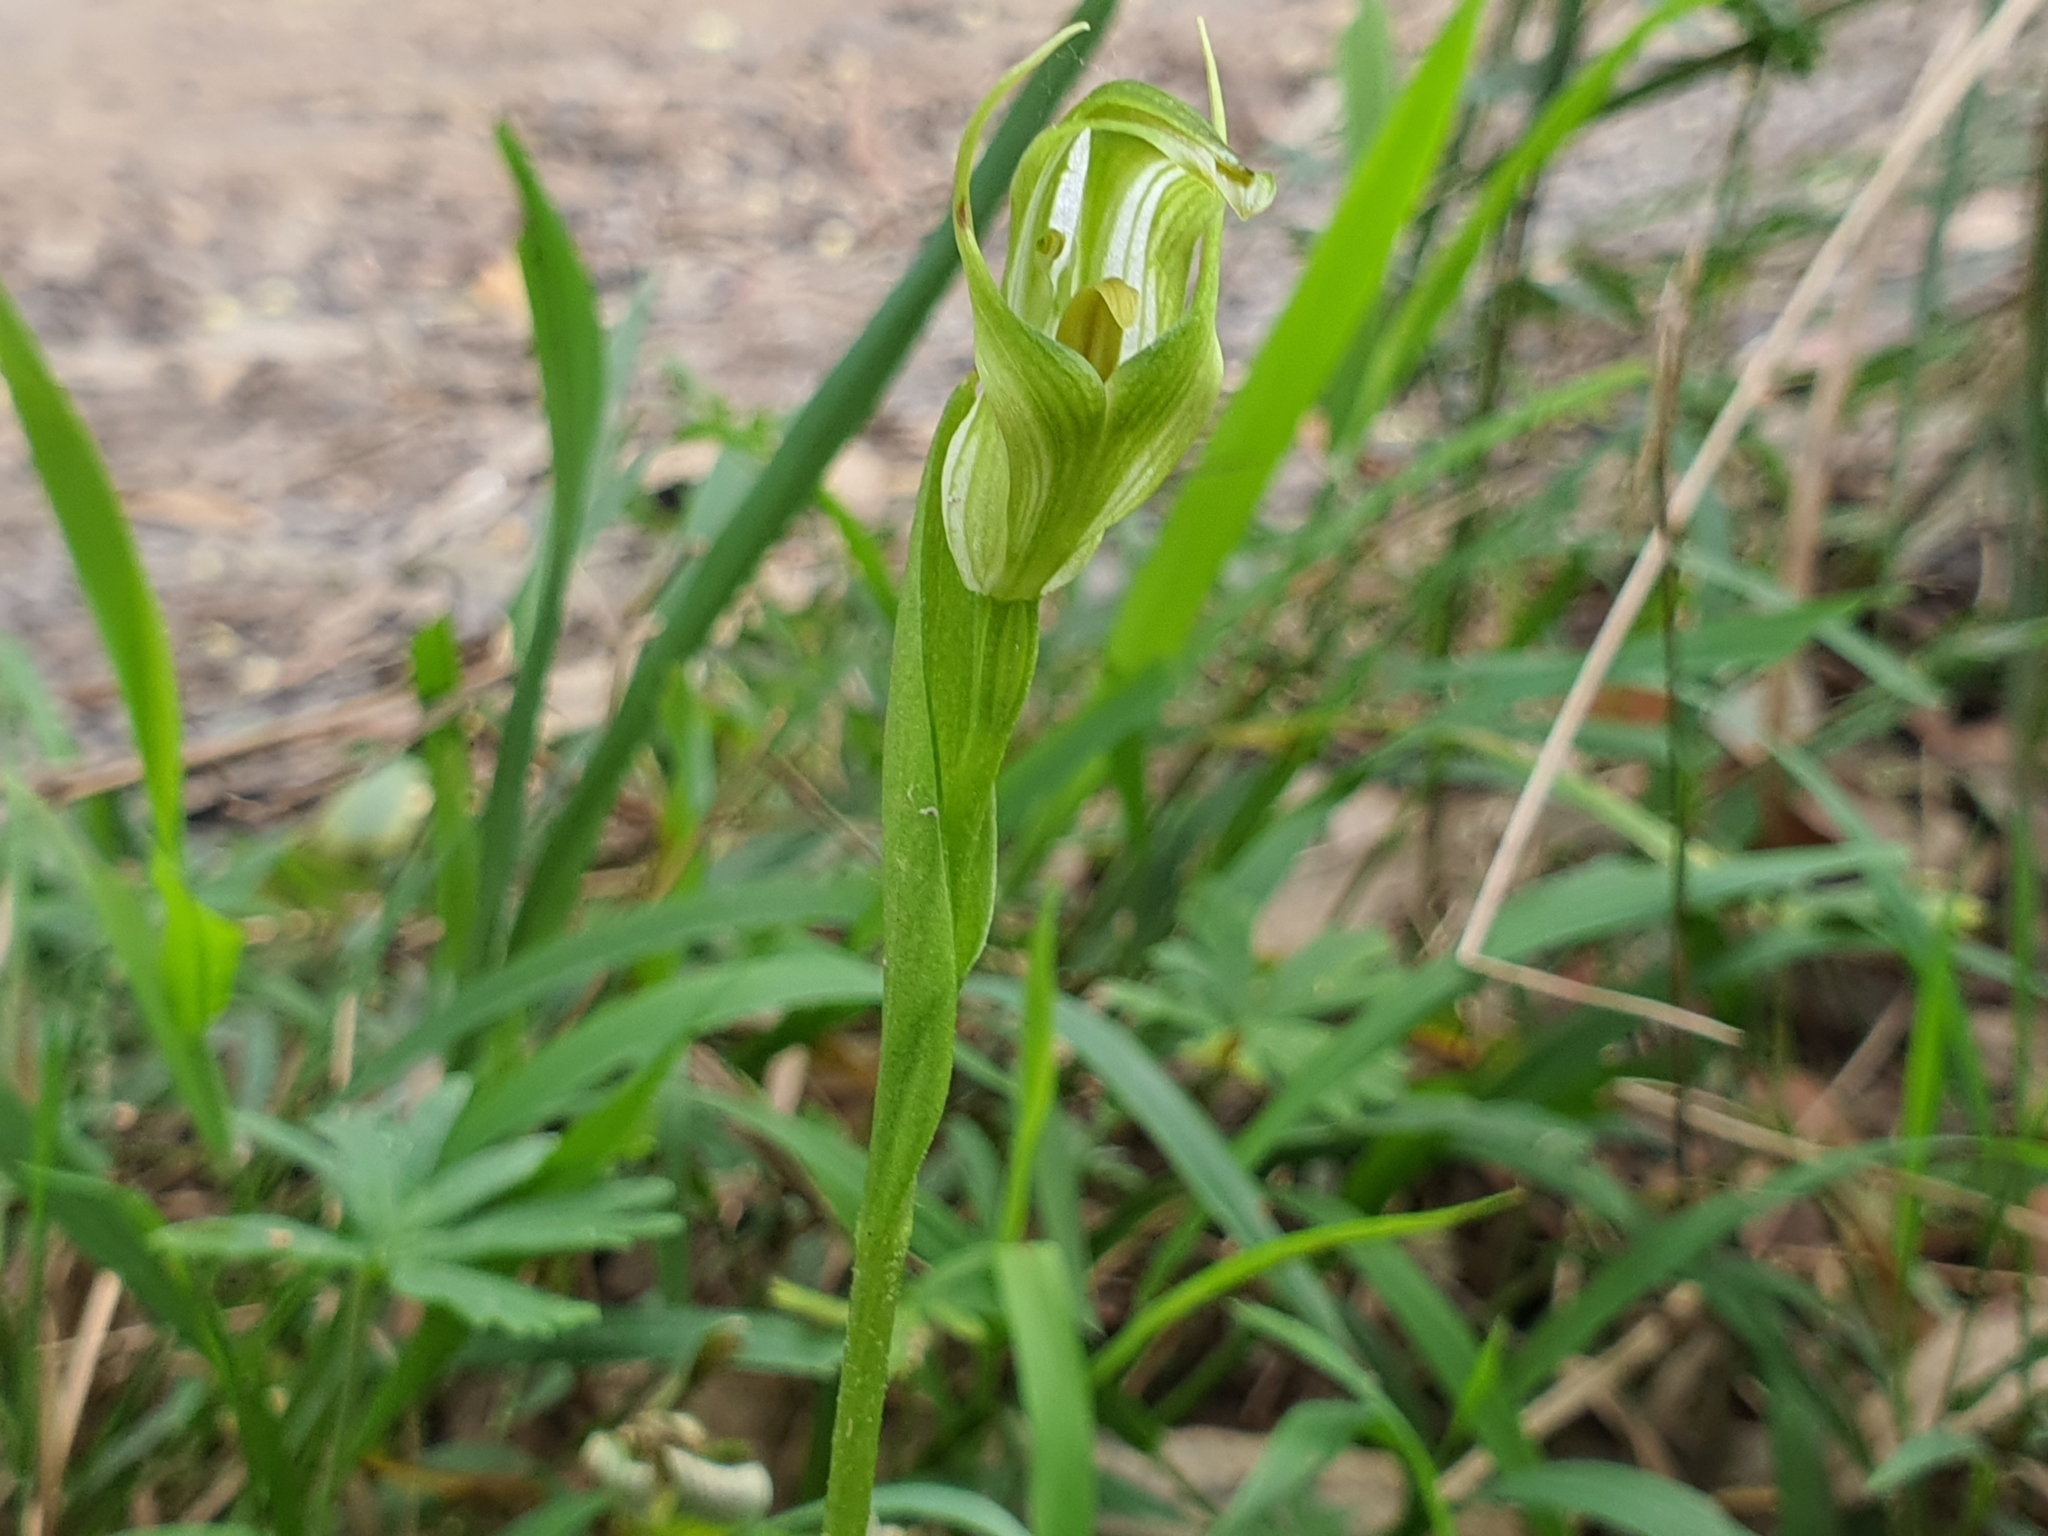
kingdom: Plantae
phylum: Tracheophyta
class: Liliopsida
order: Asparagales
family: Orchidaceae
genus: Pterostylis
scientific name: Pterostylis alpina
